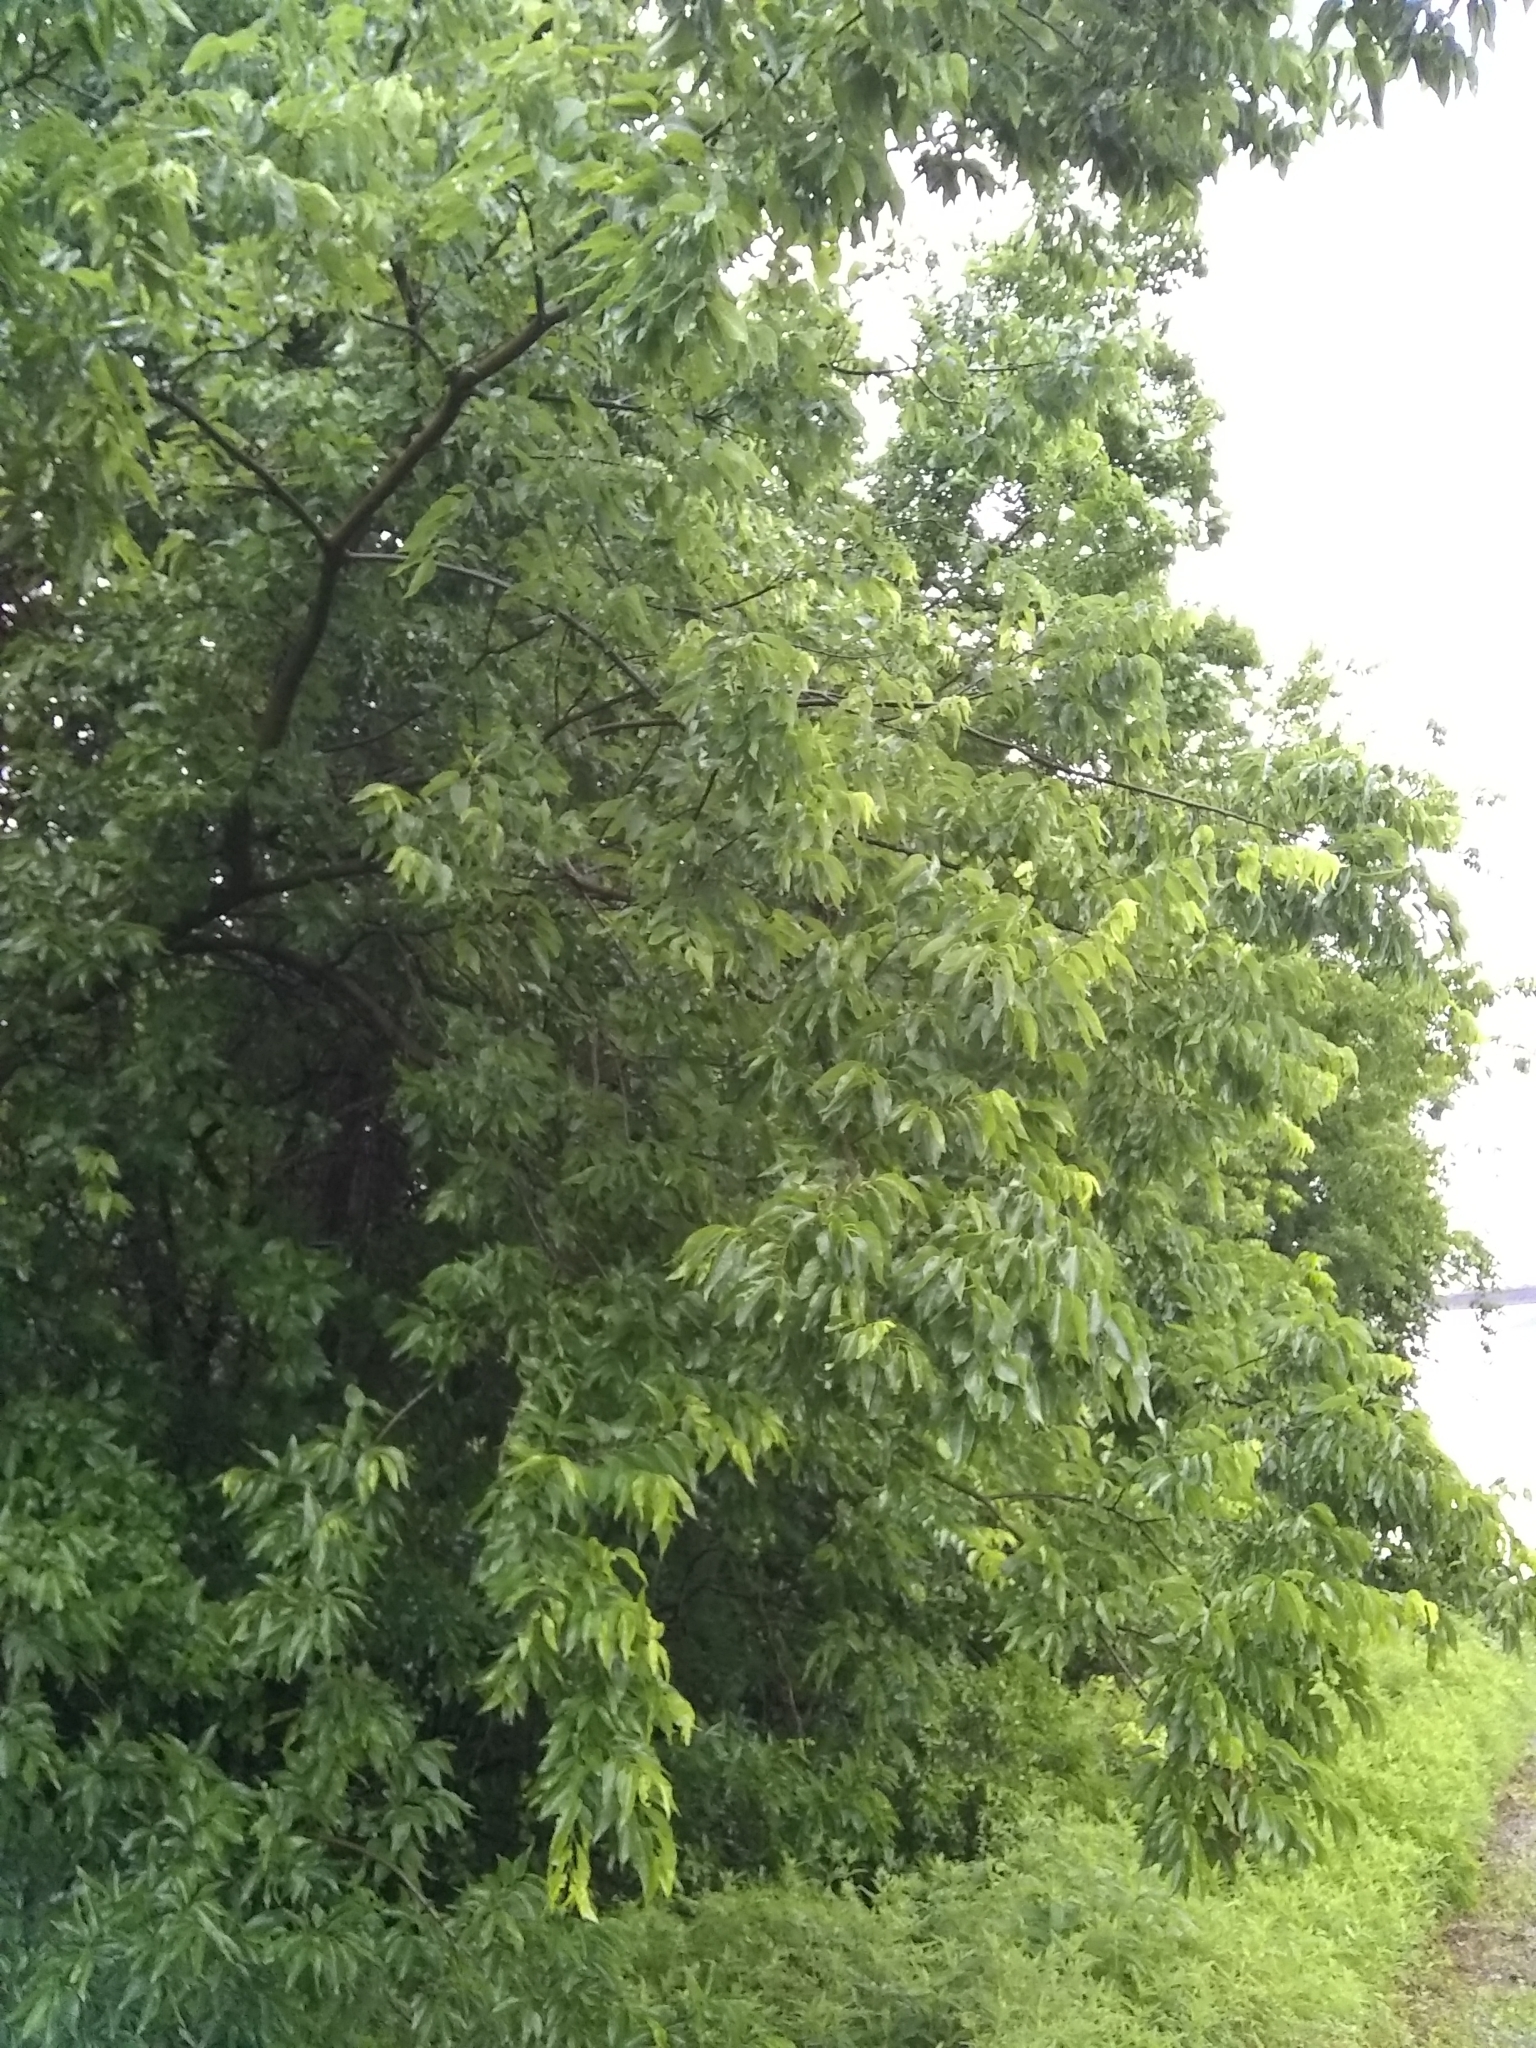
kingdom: Plantae
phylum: Tracheophyta
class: Magnoliopsida
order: Rosales
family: Cannabaceae
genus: Celtis
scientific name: Celtis laevigata
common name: Sugarberry
